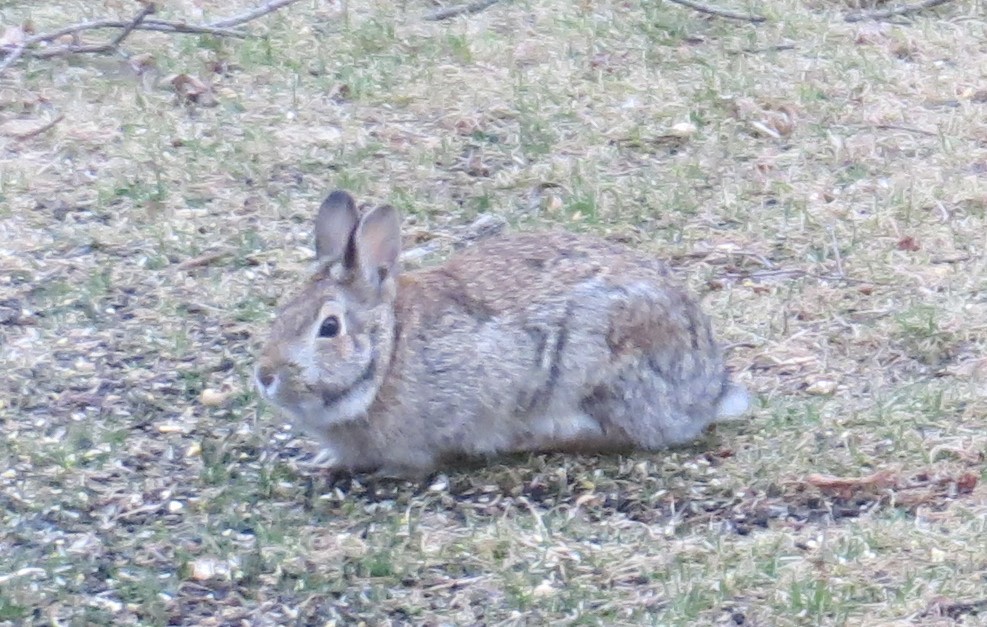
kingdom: Animalia
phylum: Chordata
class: Mammalia
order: Lagomorpha
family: Leporidae
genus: Sylvilagus
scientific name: Sylvilagus floridanus
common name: Eastern cottontail
